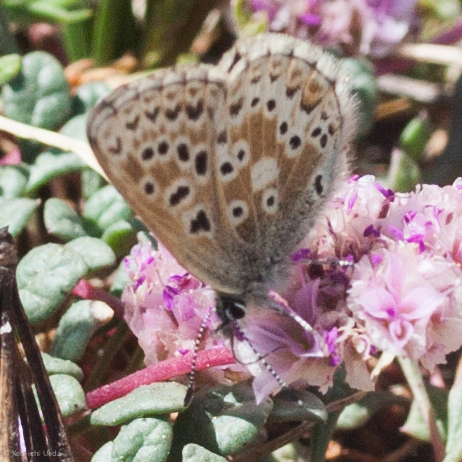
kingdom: Animalia
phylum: Arthropoda
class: Insecta
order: Lepidoptera
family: Lycaenidae
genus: Agriades
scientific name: Agriades podarce
